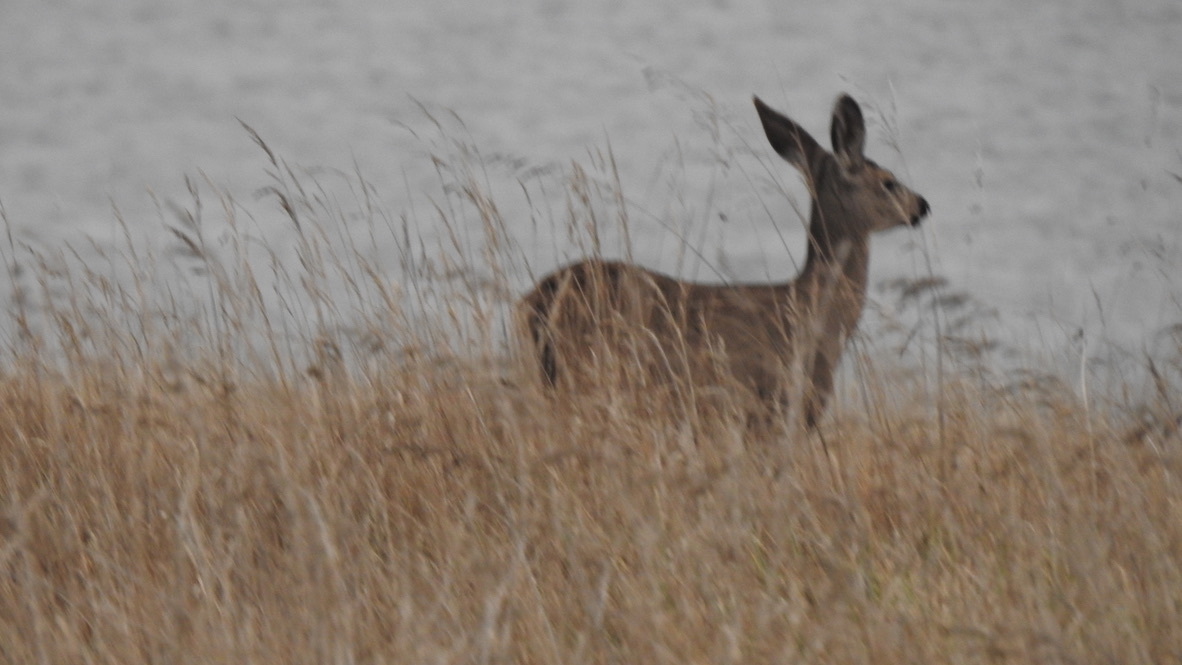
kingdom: Animalia
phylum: Chordata
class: Mammalia
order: Artiodactyla
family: Cervidae
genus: Odocoileus
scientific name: Odocoileus hemionus
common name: Mule deer
